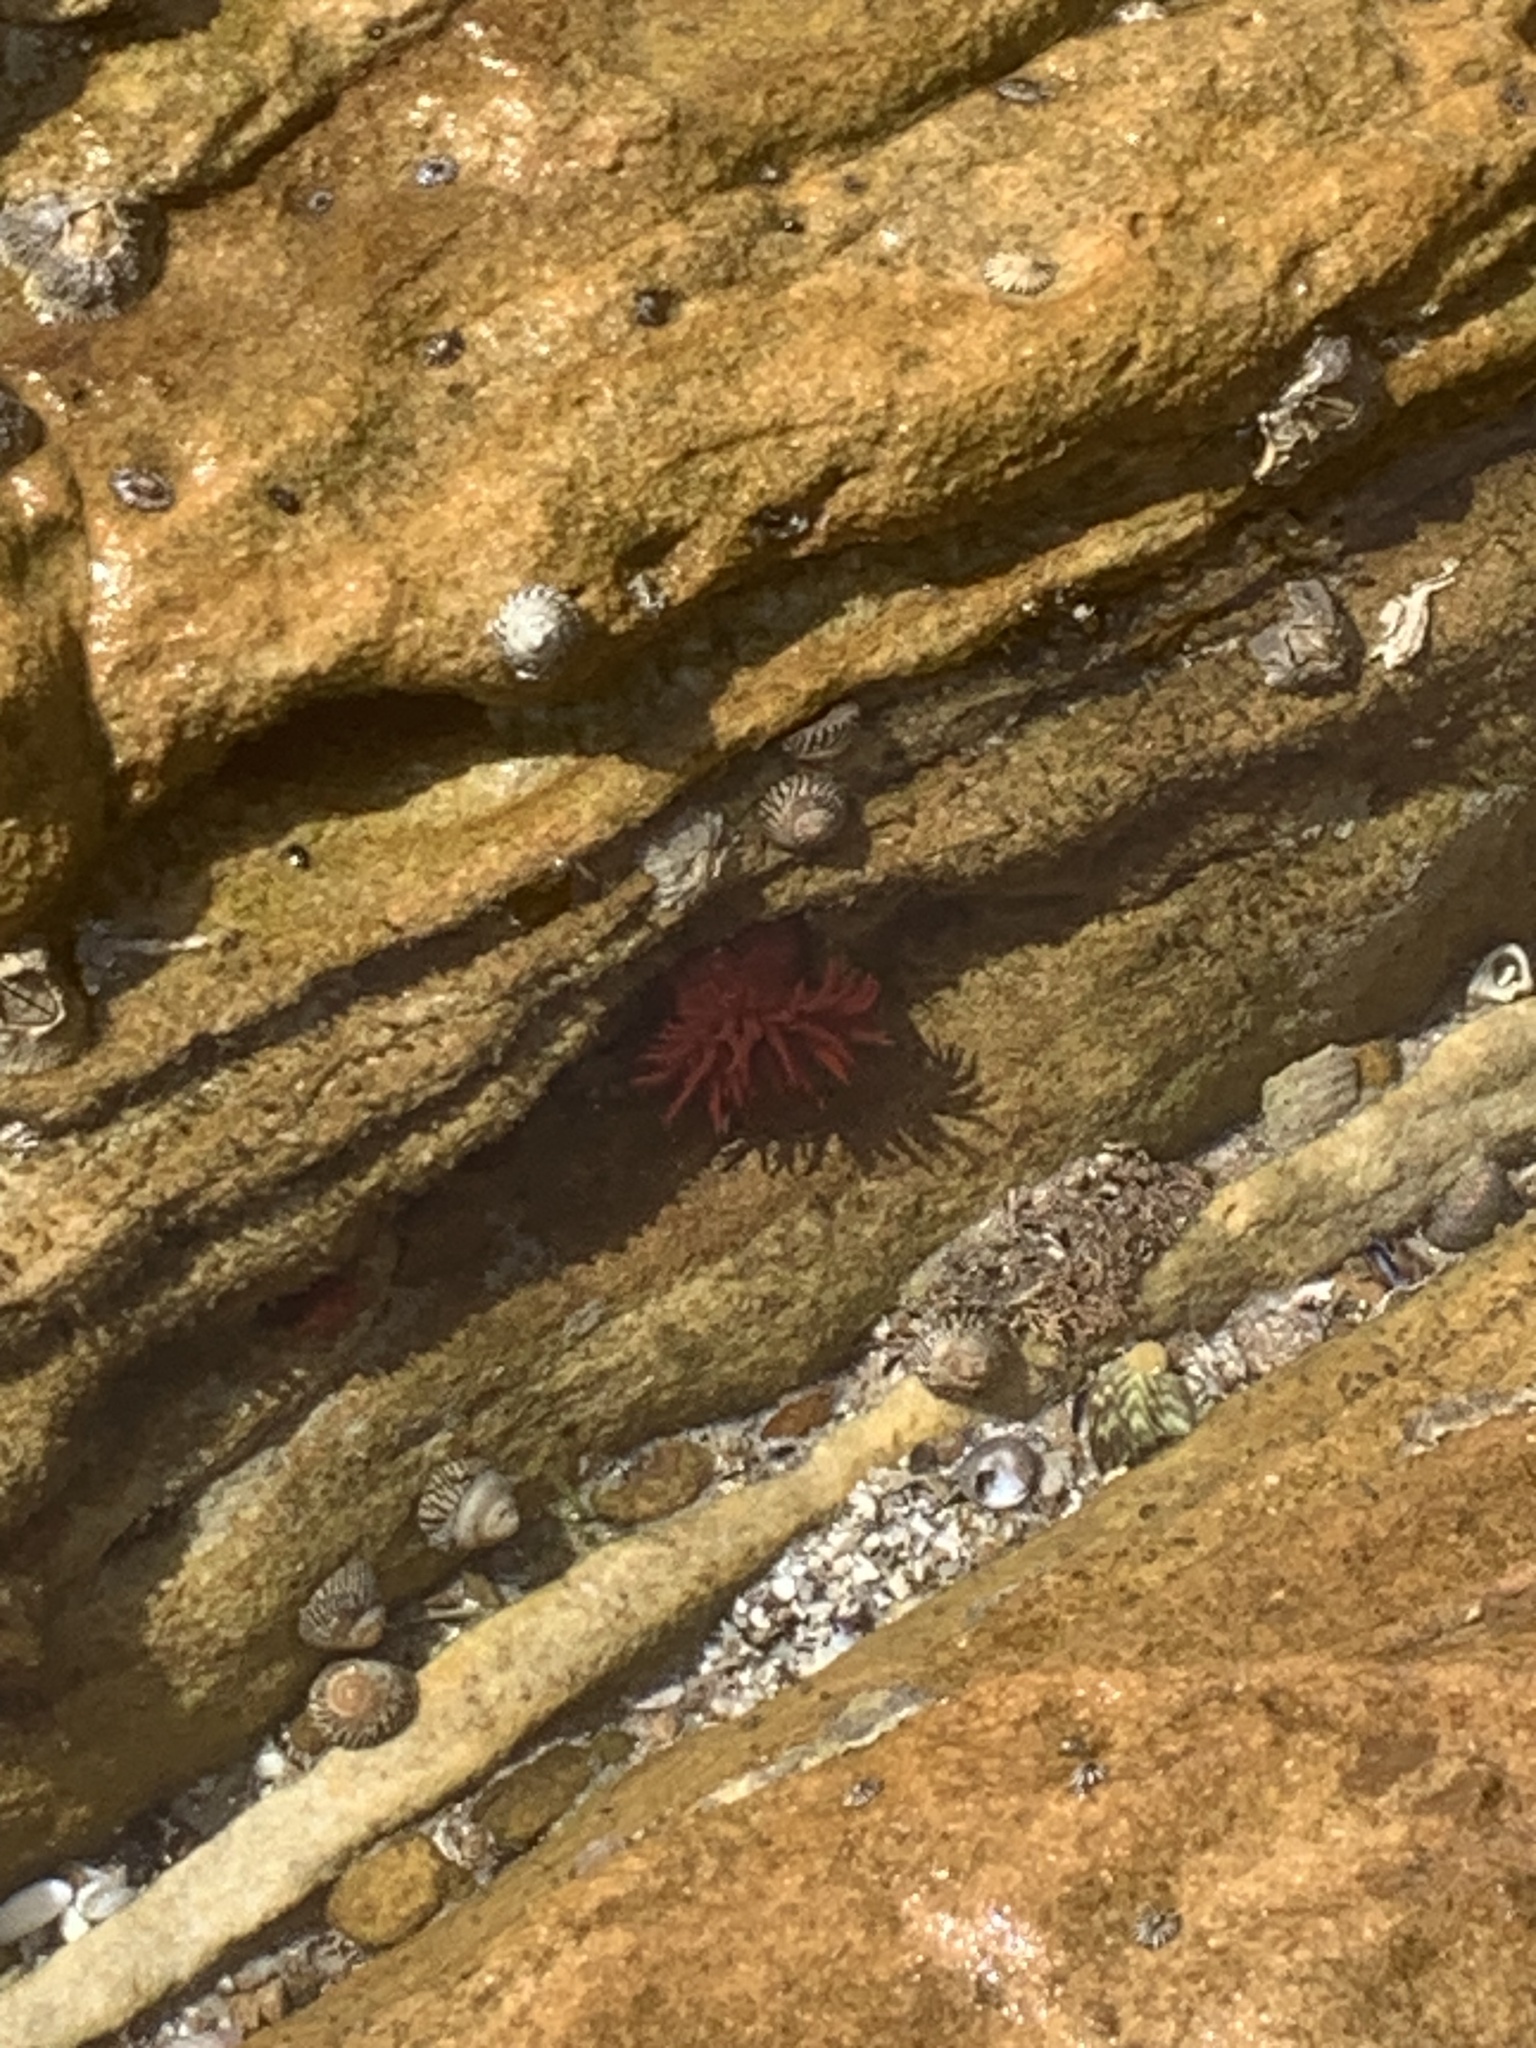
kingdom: Animalia
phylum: Cnidaria
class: Anthozoa
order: Actiniaria
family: Actiniidae
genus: Actinia
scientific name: Actinia tenebrosa
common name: Waratah anemone
